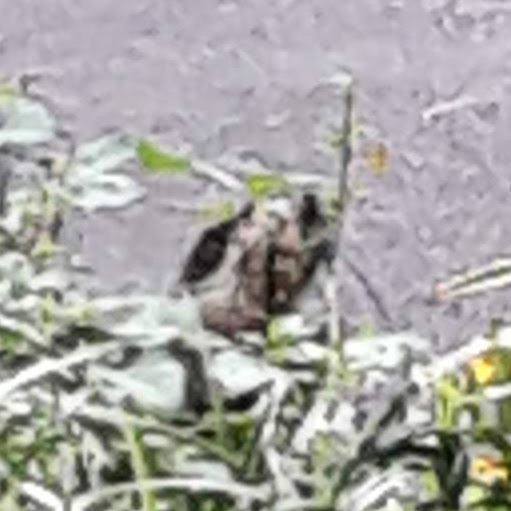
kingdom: Animalia
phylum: Chordata
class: Mammalia
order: Rodentia
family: Sciuridae
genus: Marmota
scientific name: Marmota monax
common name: Groundhog
